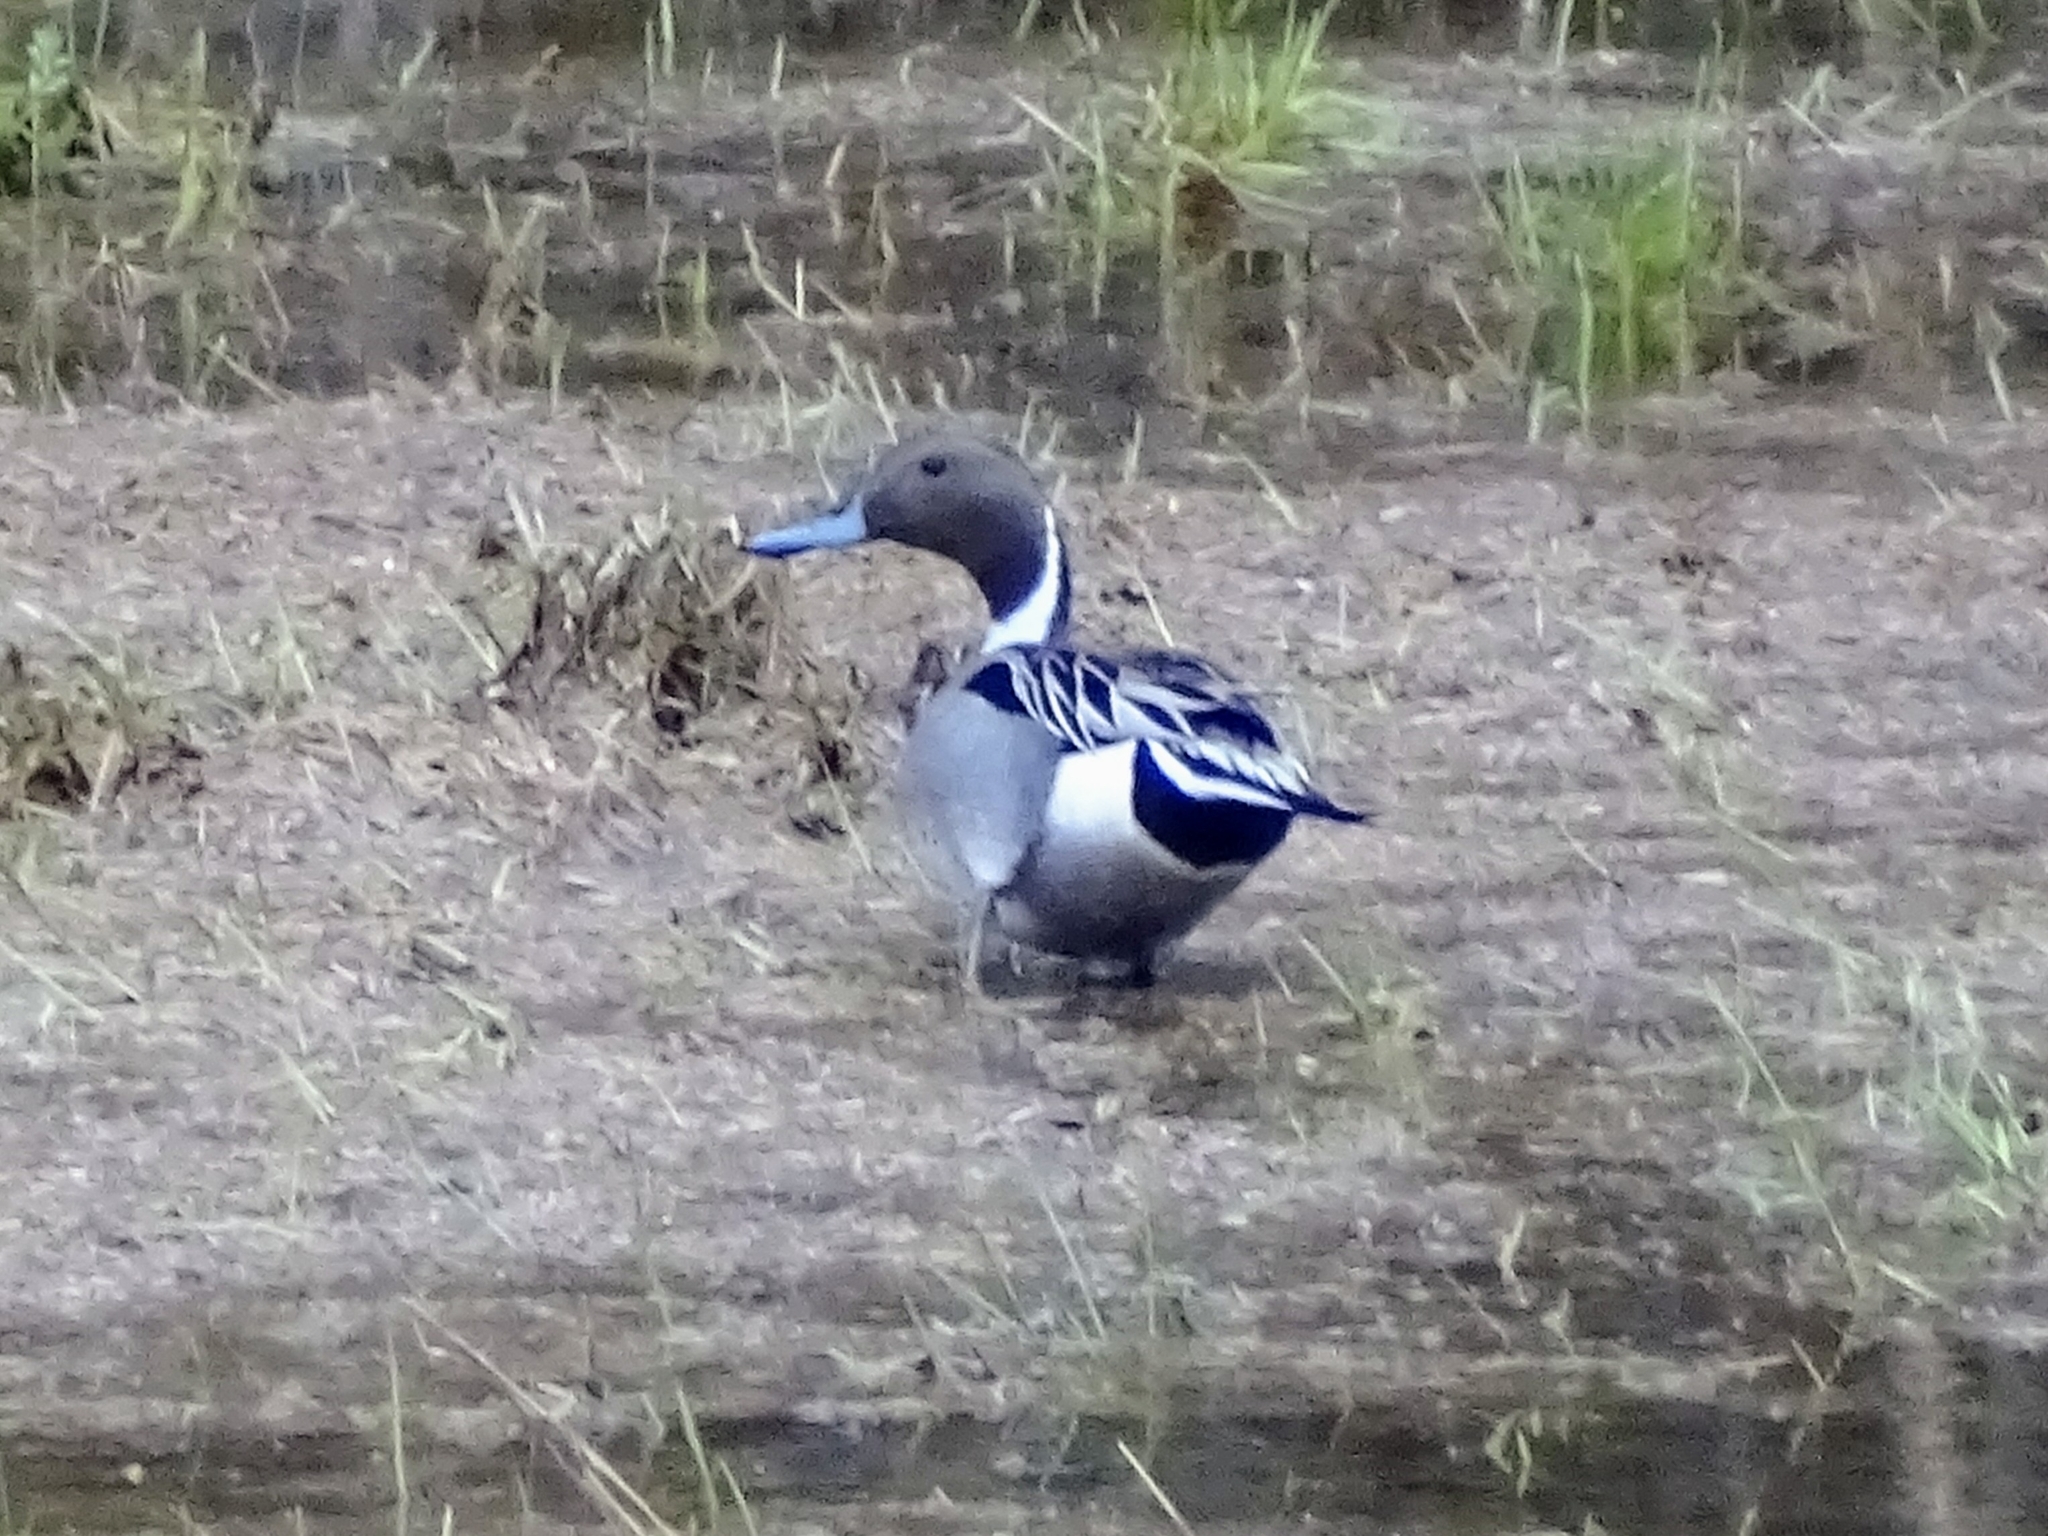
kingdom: Animalia
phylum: Chordata
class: Aves
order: Anseriformes
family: Anatidae
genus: Anas
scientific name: Anas acuta
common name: Northern pintail
